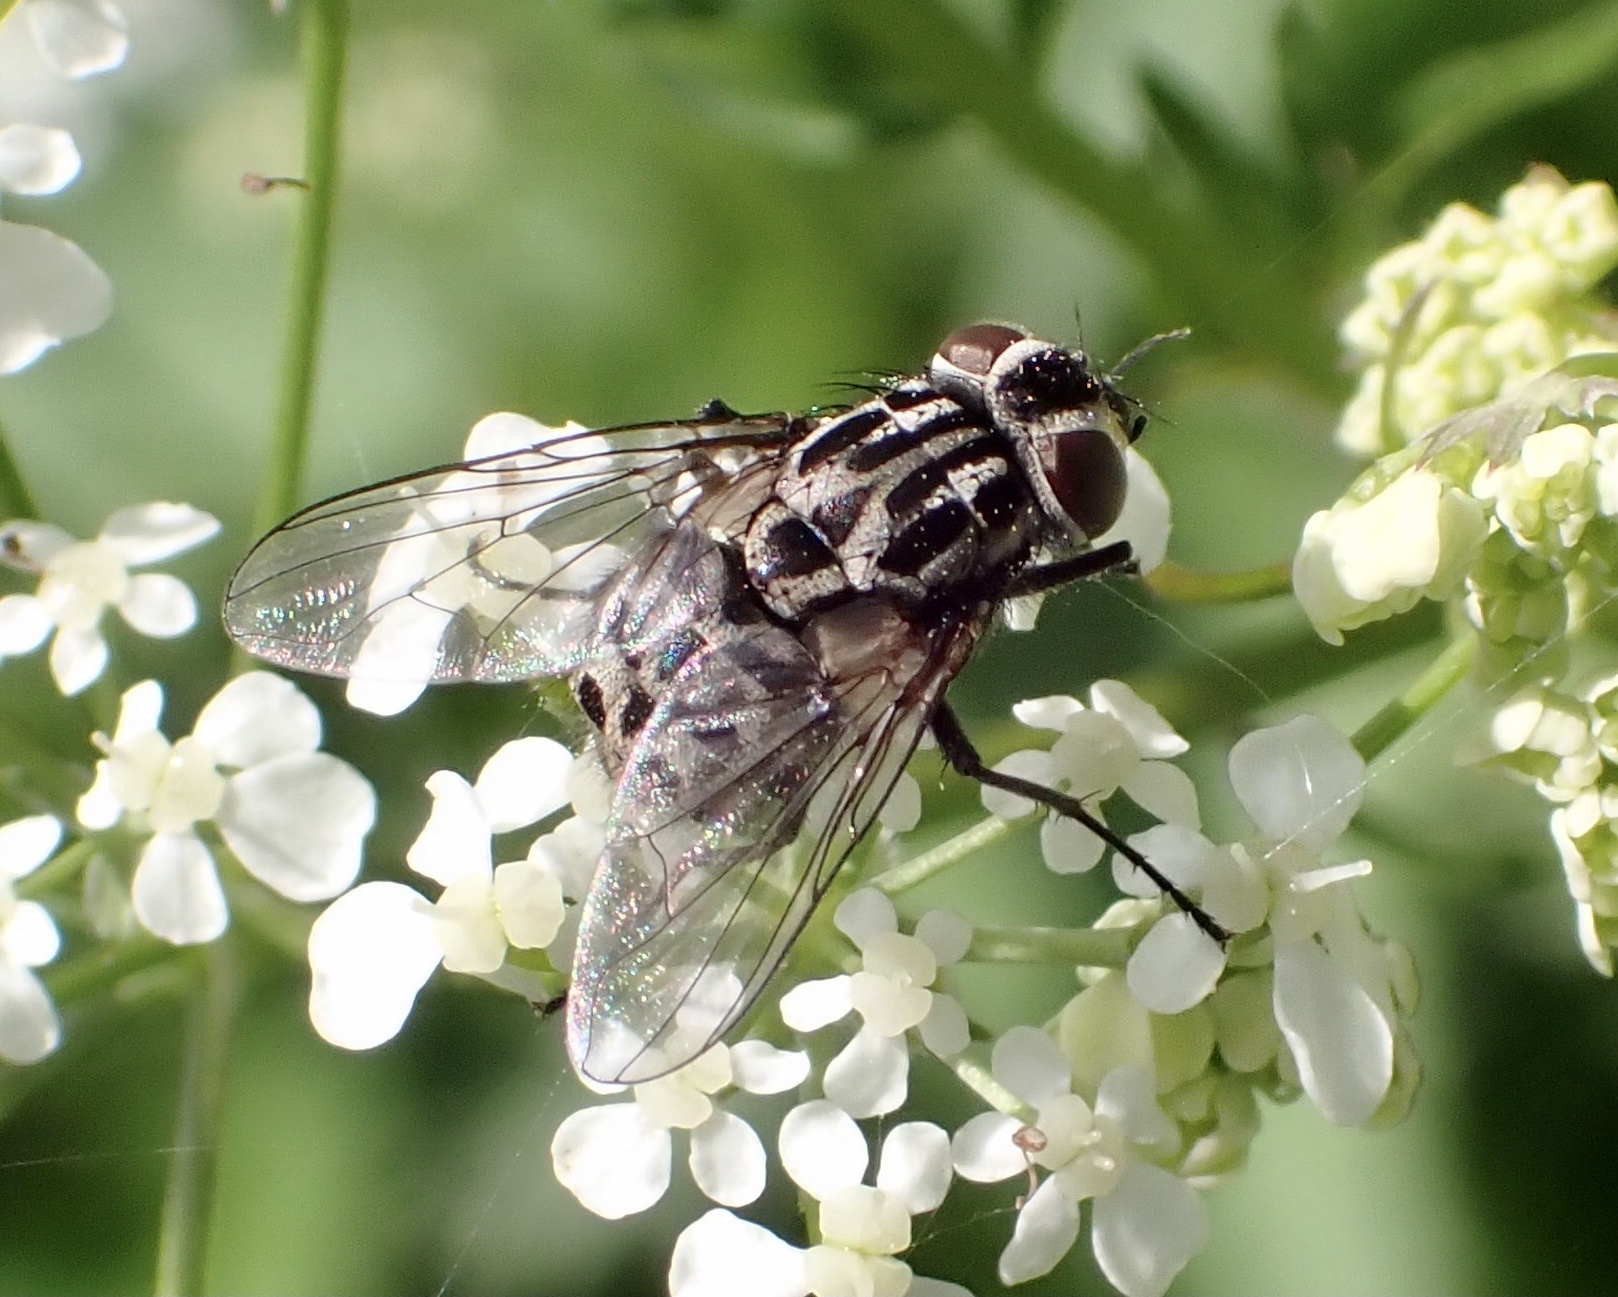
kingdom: Animalia
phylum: Arthropoda
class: Insecta
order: Diptera
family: Muscidae
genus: Graphomya
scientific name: Graphomya maculata
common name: Muscid fly
